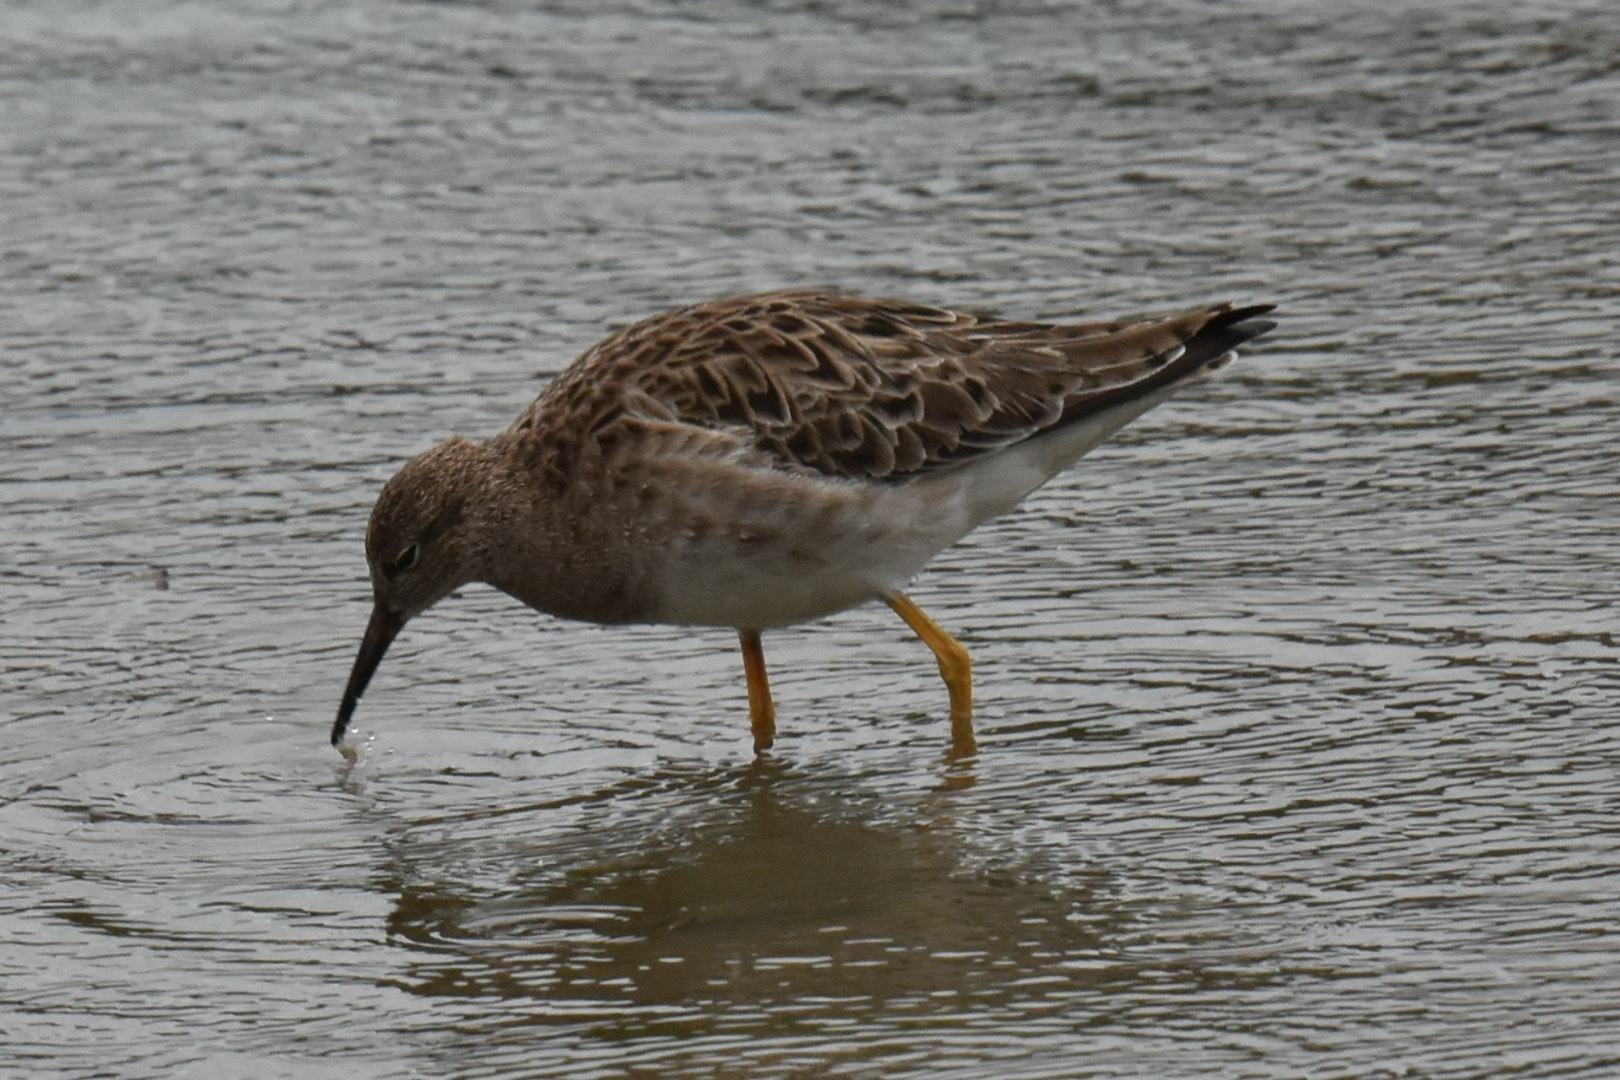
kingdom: Animalia
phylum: Chordata
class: Aves
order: Charadriiformes
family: Scolopacidae
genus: Calidris
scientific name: Calidris pugnax
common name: Ruff
